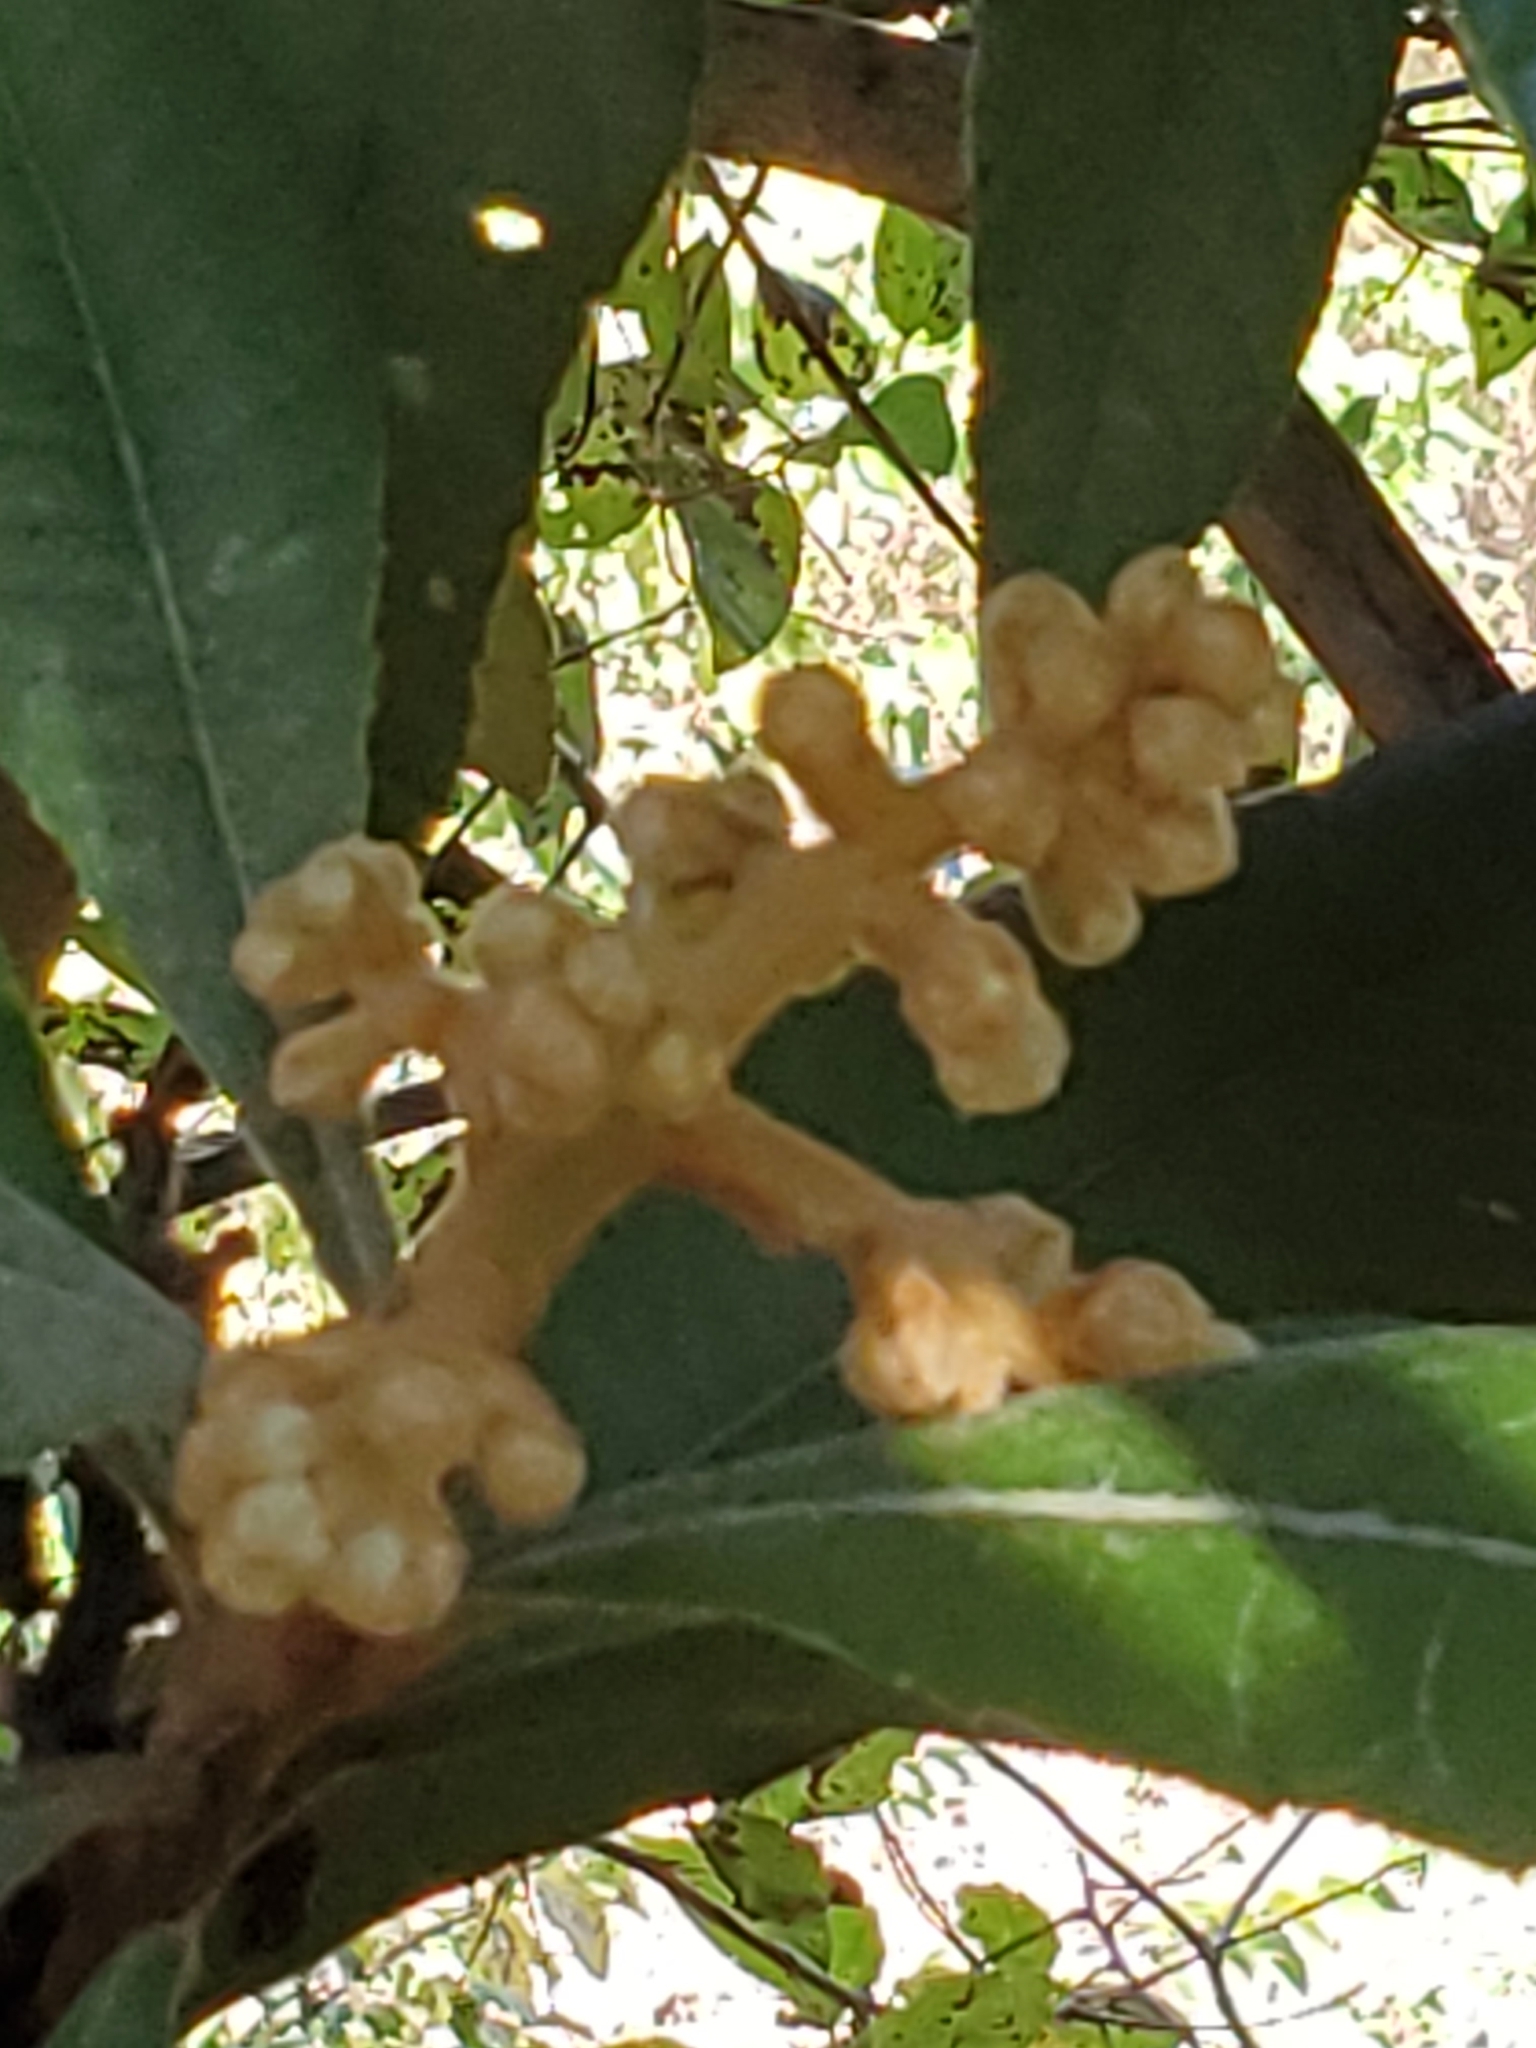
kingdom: Plantae
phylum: Tracheophyta
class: Magnoliopsida
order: Rosales
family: Rosaceae
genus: Rhaphiolepis
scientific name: Rhaphiolepis bibas
